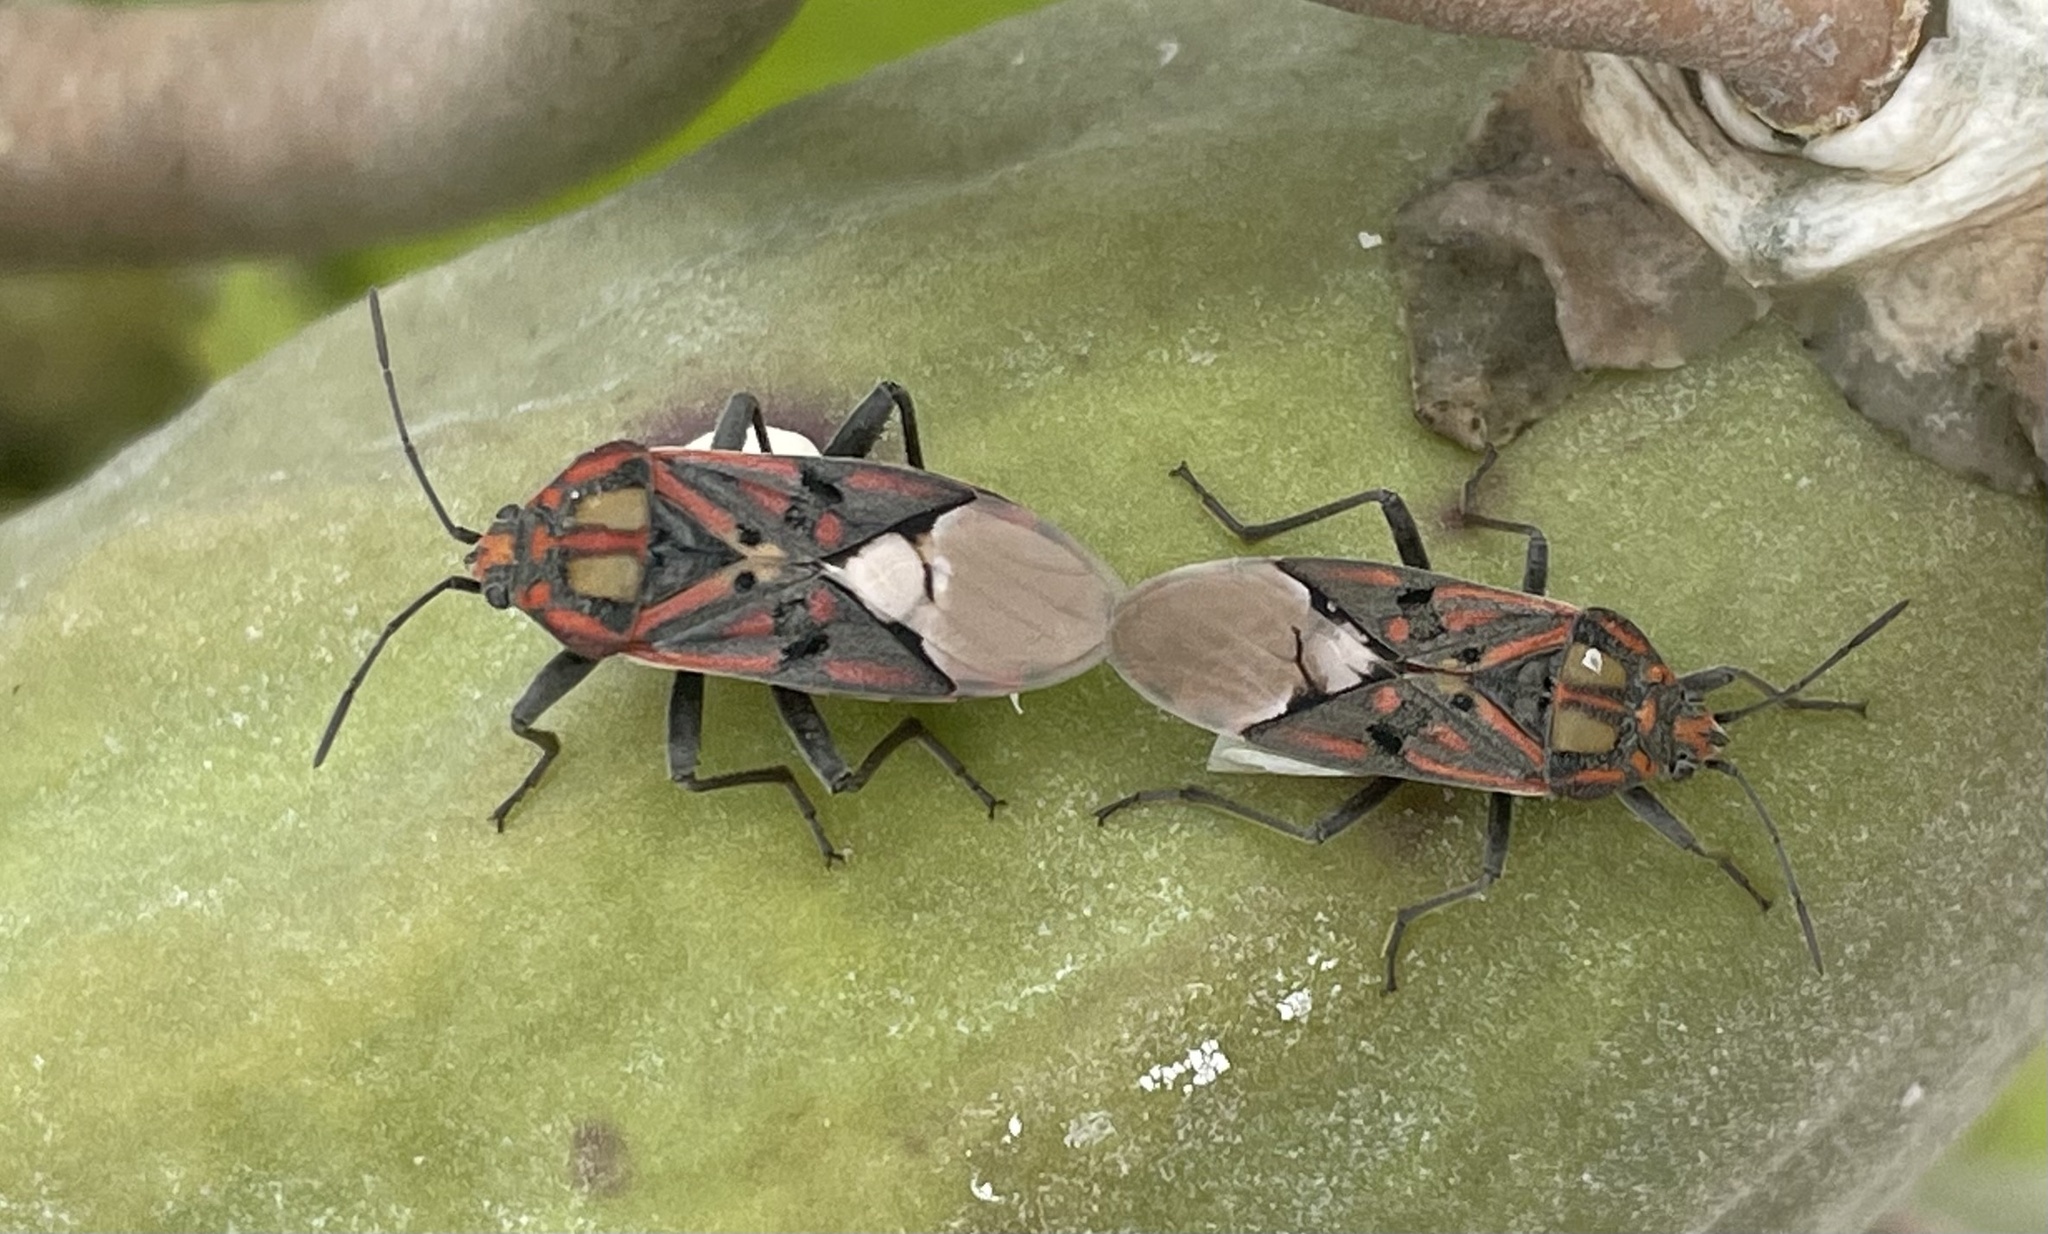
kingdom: Animalia
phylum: Arthropoda
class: Insecta
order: Hemiptera
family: Lygaeidae
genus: Spilostethus
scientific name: Spilostethus pandurus
